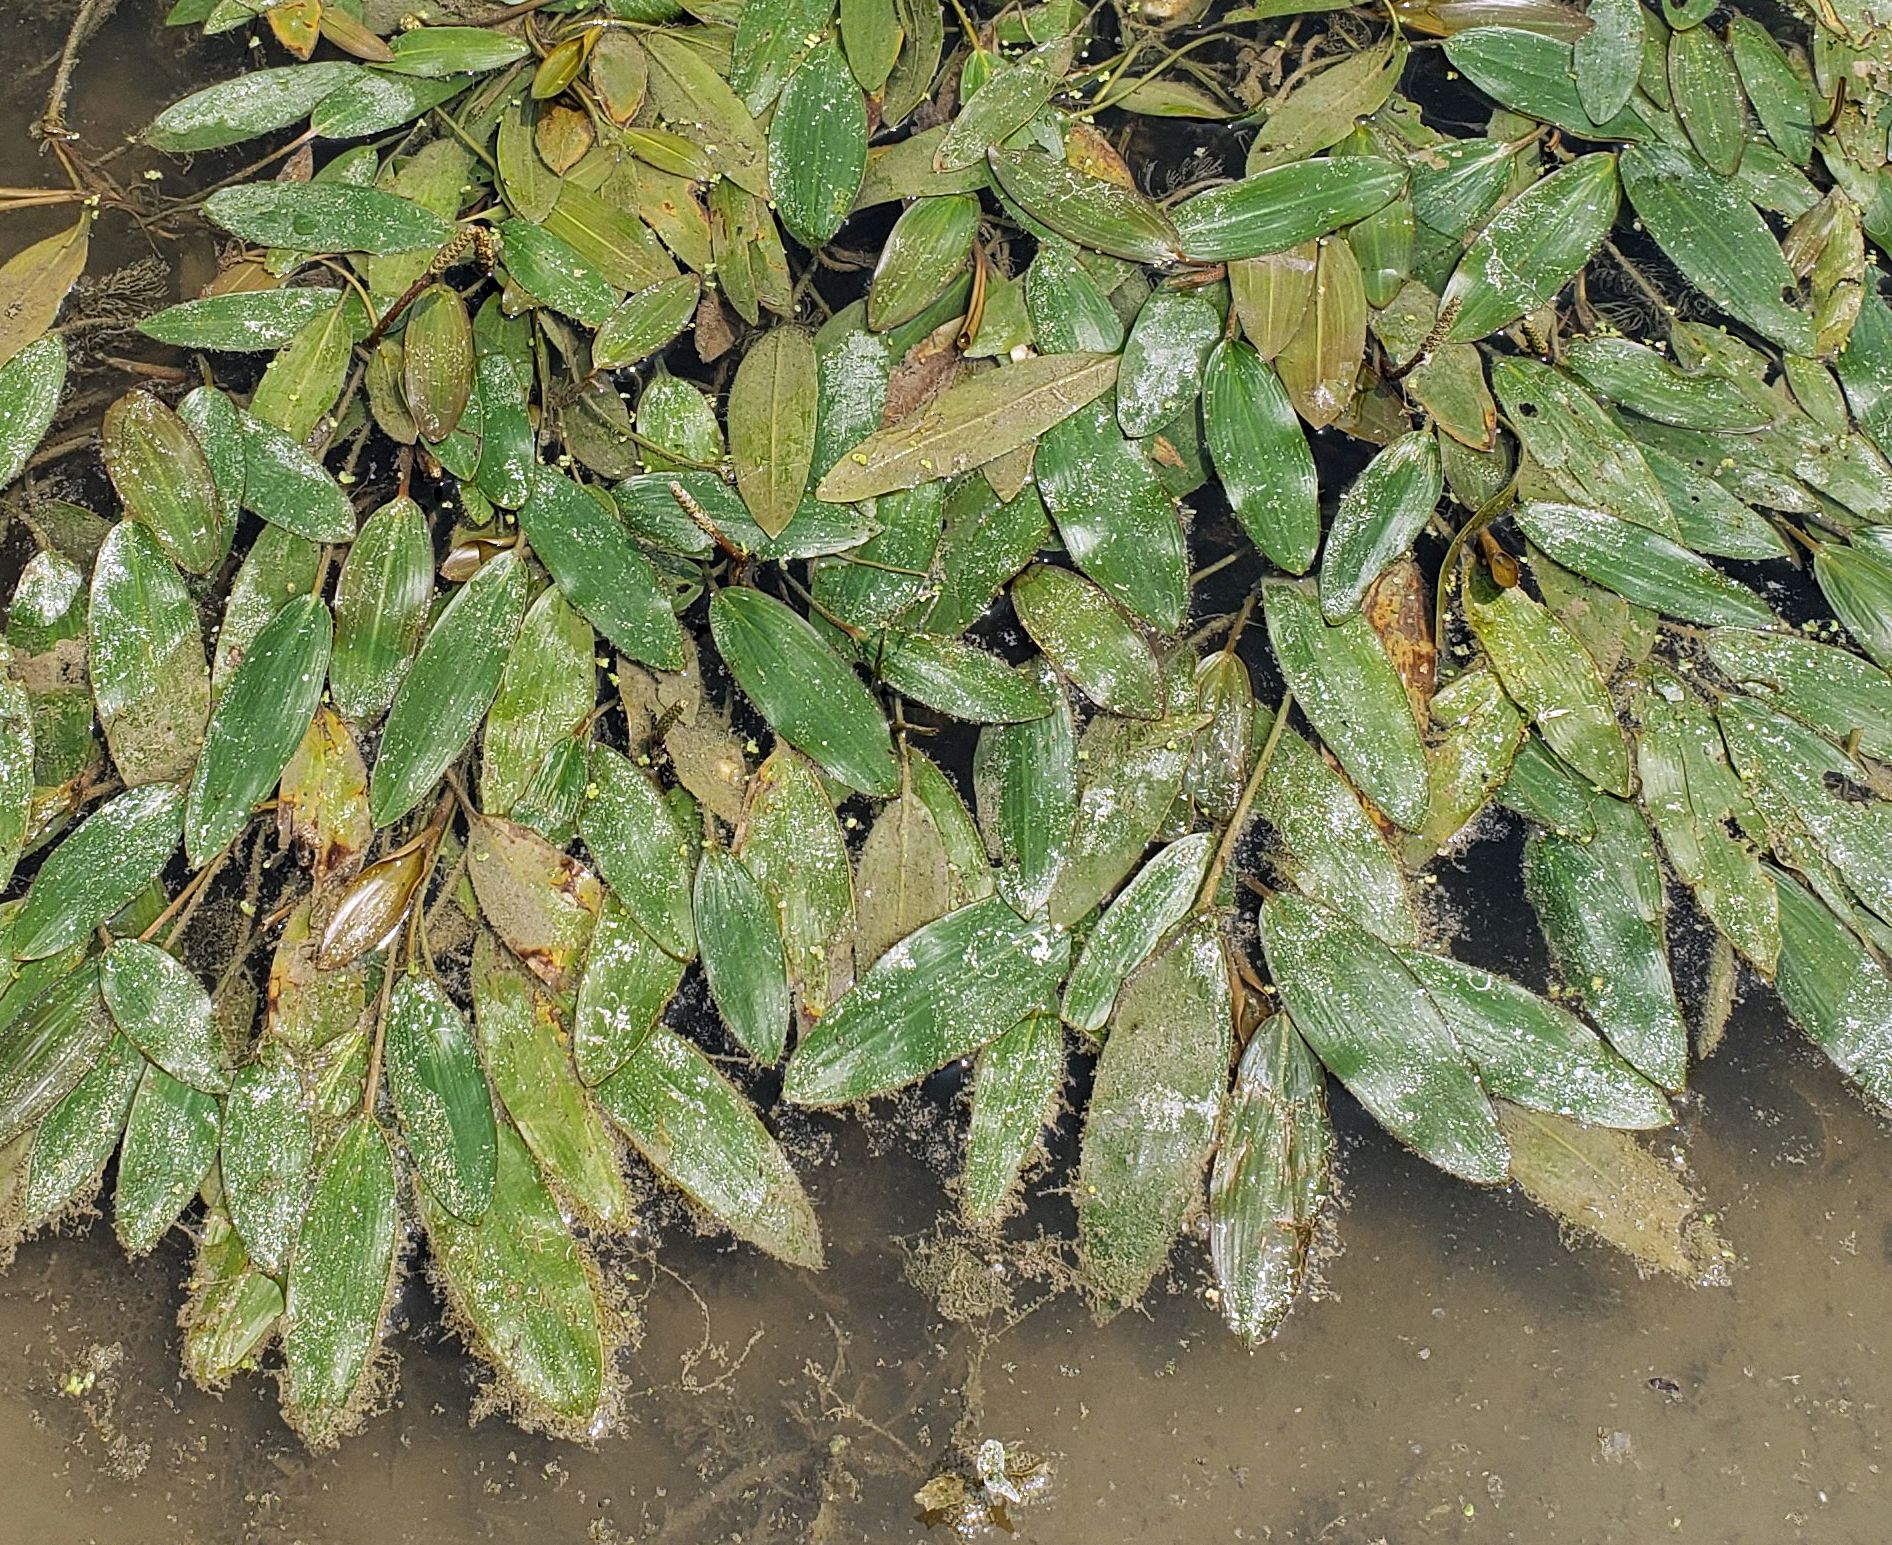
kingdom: Plantae
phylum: Tracheophyta
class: Liliopsida
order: Alismatales
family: Potamogetonaceae
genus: Potamogeton
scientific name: Potamogeton nodosus
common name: Loddon pondweed
